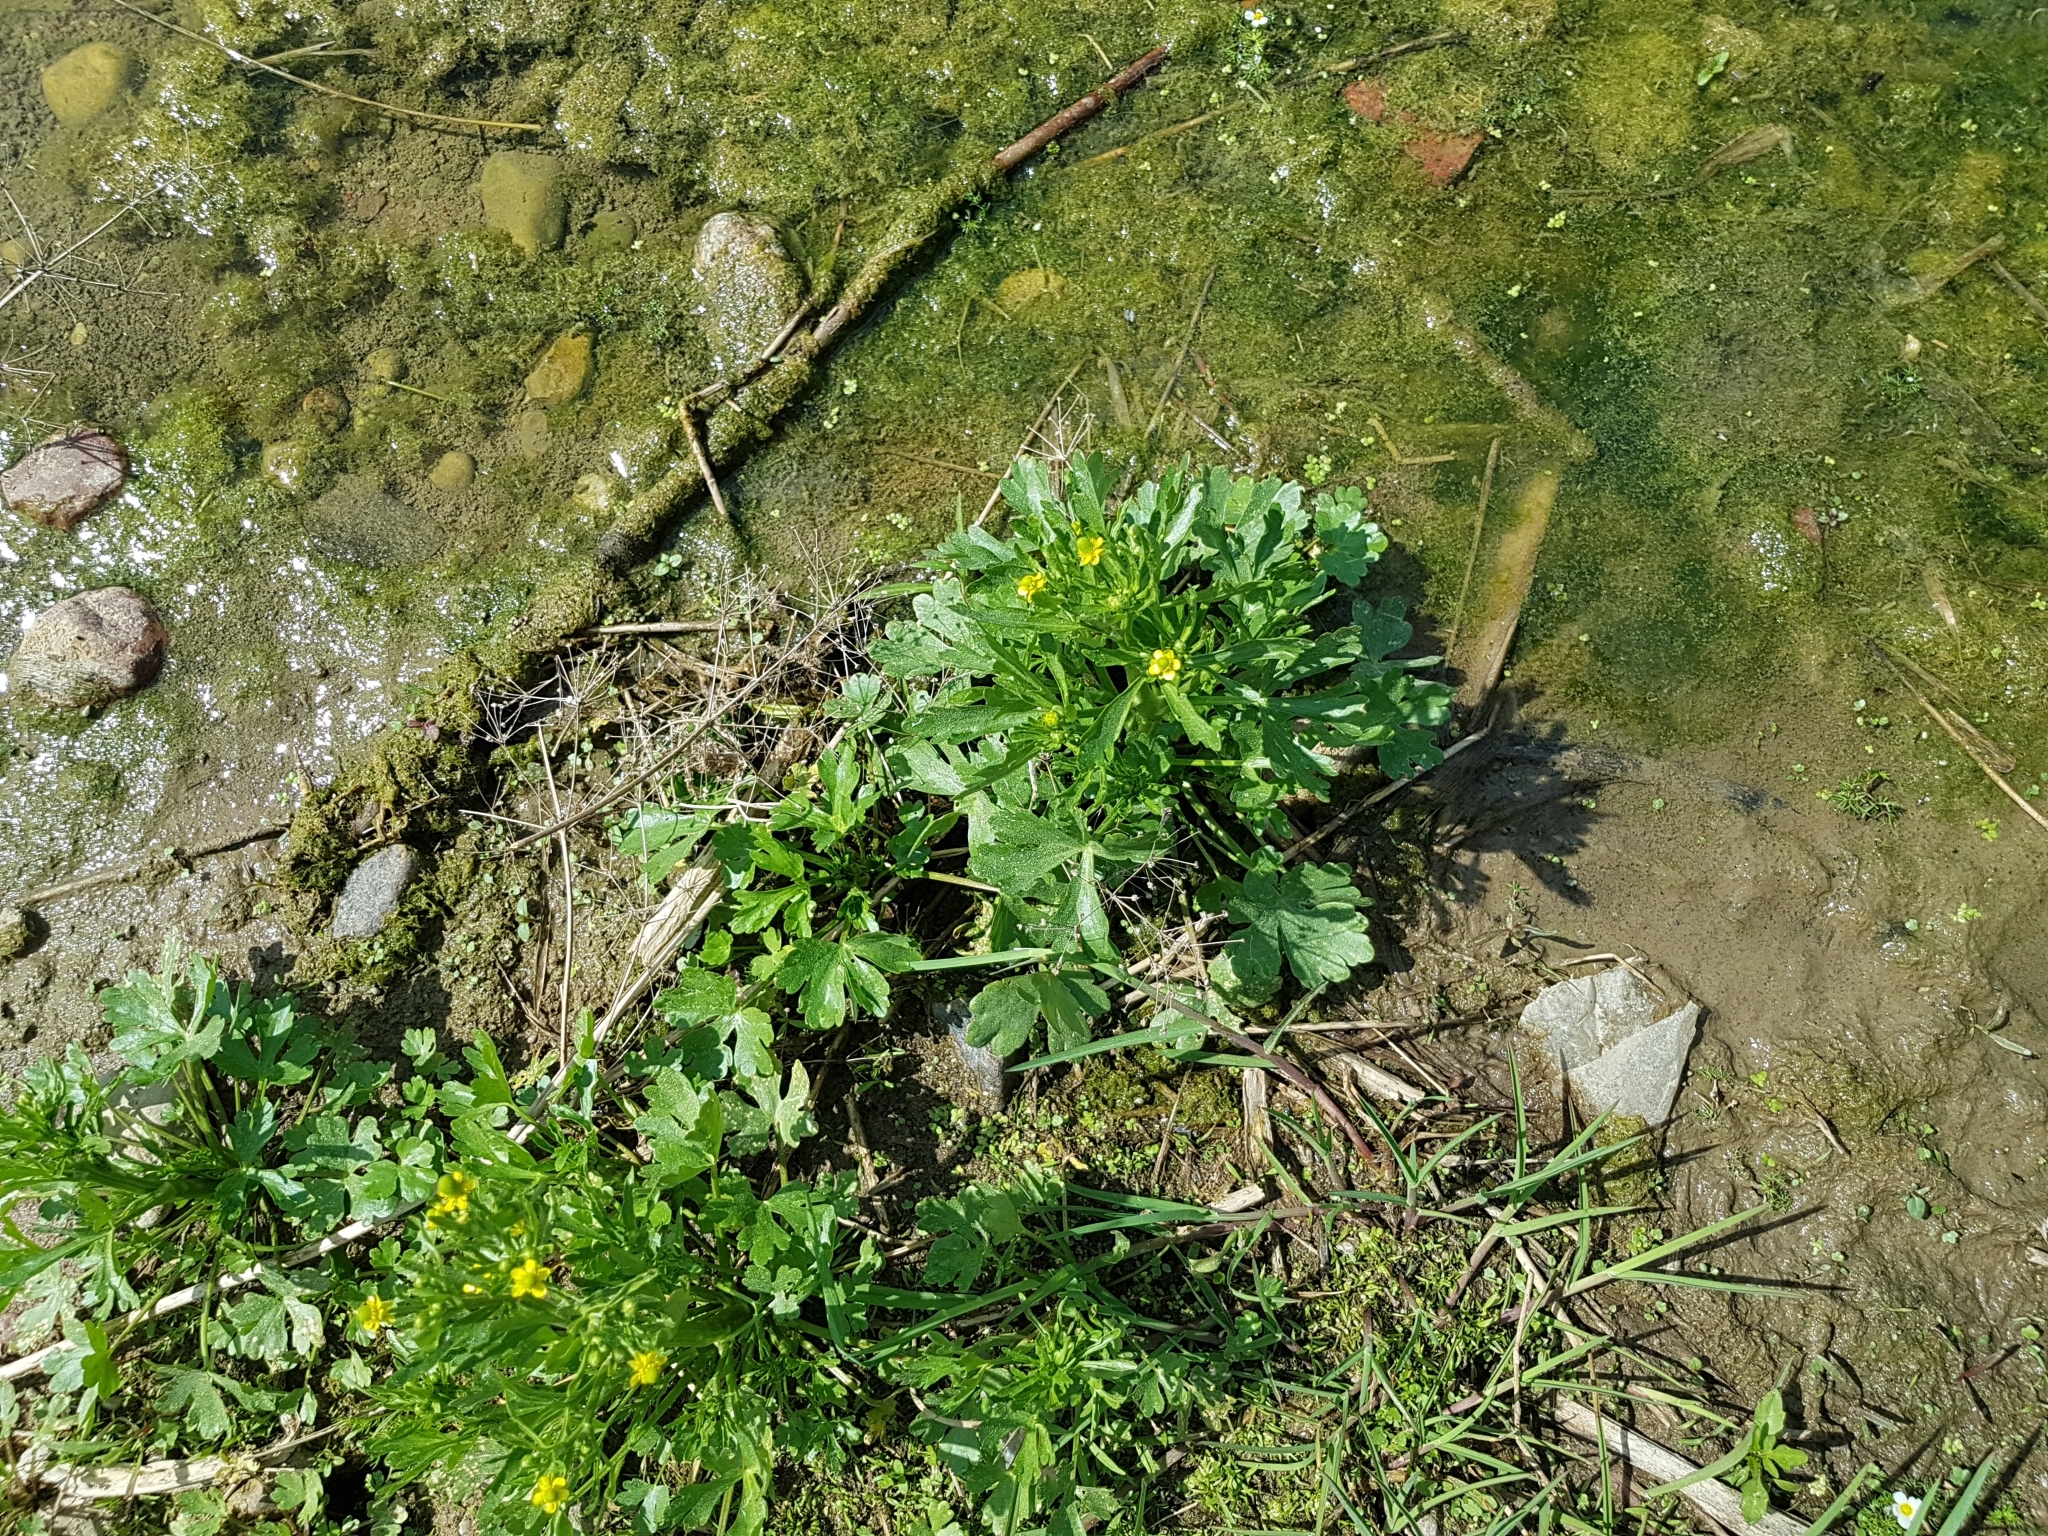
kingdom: Plantae
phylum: Tracheophyta
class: Magnoliopsida
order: Ranunculales
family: Ranunculaceae
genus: Ranunculus
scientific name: Ranunculus sceleratus
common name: Celery-leaved buttercup
